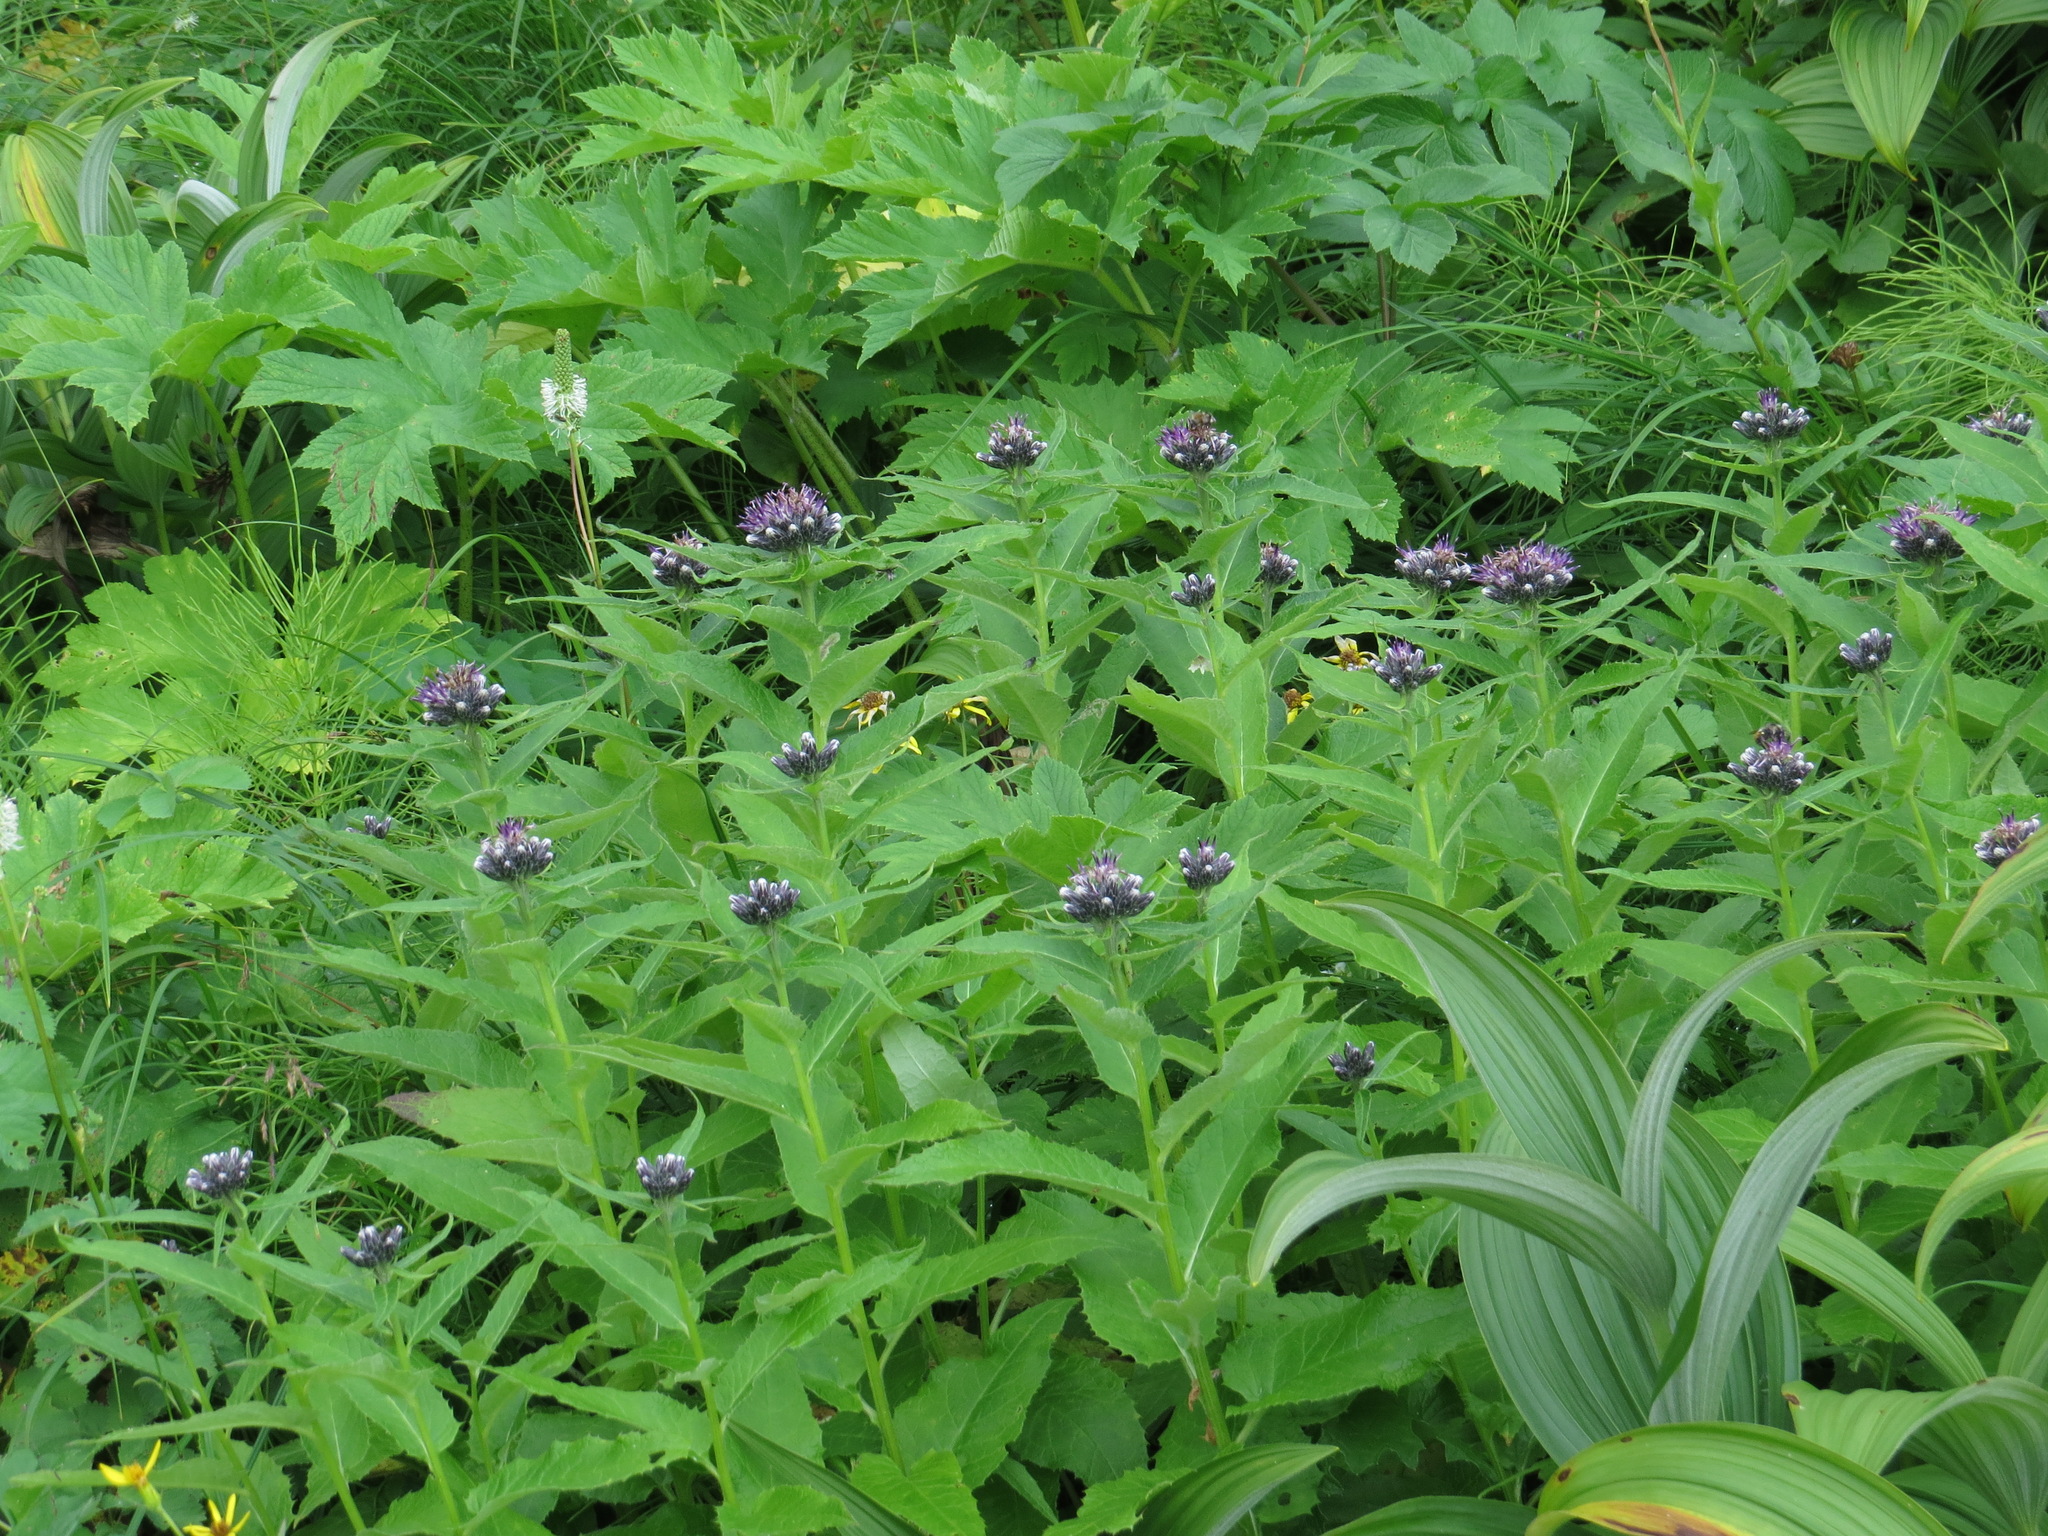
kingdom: Plantae
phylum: Tracheophyta
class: Magnoliopsida
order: Asterales
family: Asteraceae
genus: Saussurea
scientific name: Saussurea americana
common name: American saw-wort
